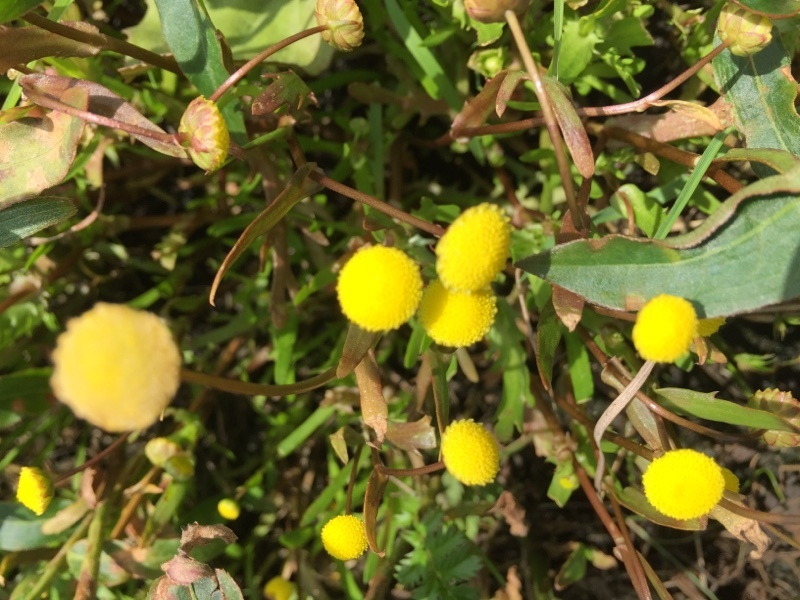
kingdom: Plantae
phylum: Tracheophyta
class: Magnoliopsida
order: Asterales
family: Asteraceae
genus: Cotula
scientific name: Cotula coronopifolia
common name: Buttonweed
